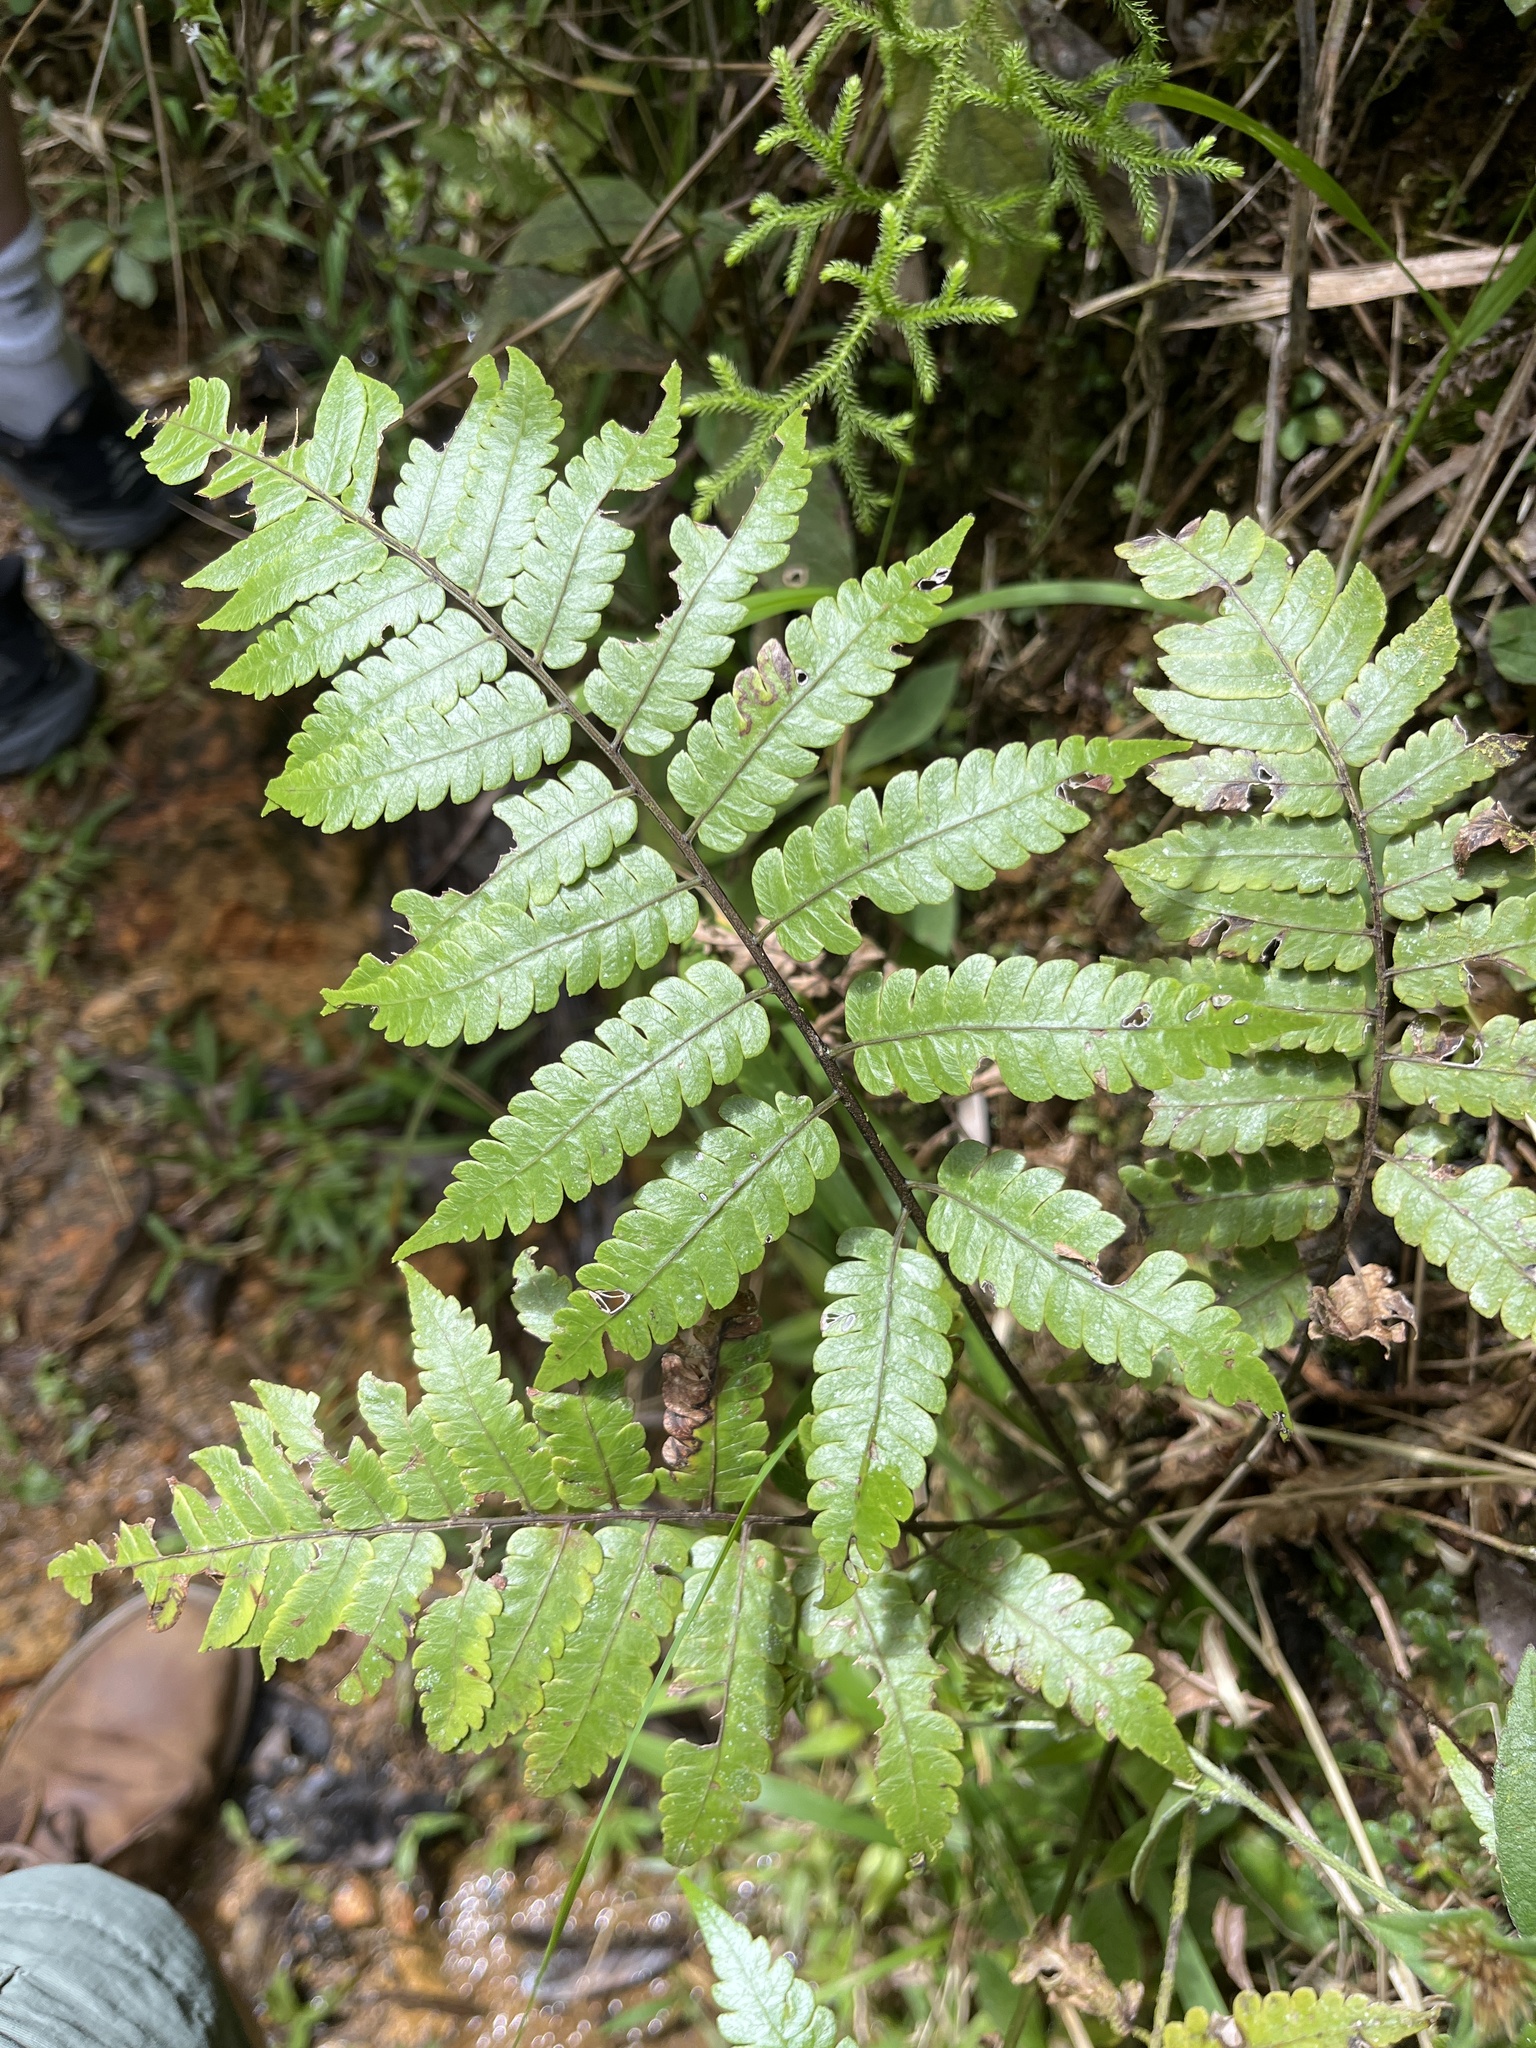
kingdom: Plantae
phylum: Tracheophyta
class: Polypodiopsida
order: Cyatheales
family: Cyatheaceae
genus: Cyathea
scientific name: Cyathea borinquena
